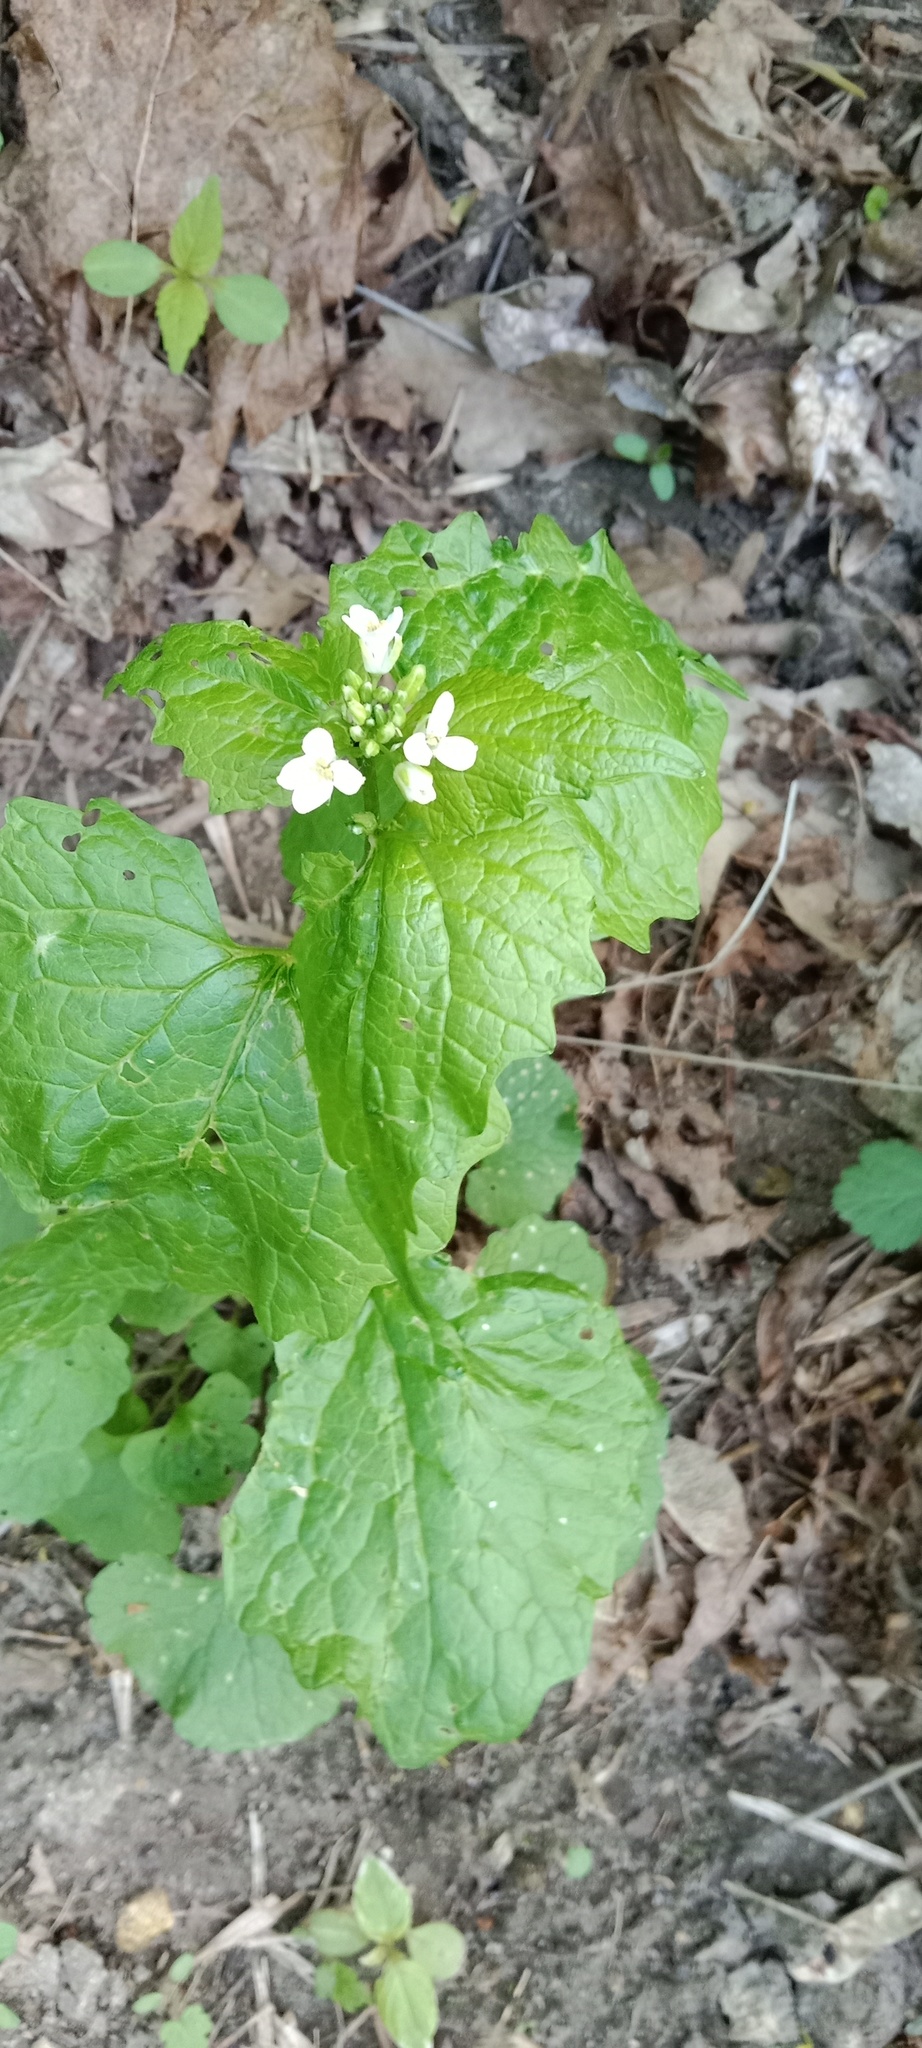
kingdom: Plantae
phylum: Tracheophyta
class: Magnoliopsida
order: Brassicales
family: Brassicaceae
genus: Alliaria
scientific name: Alliaria petiolata
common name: Garlic mustard
